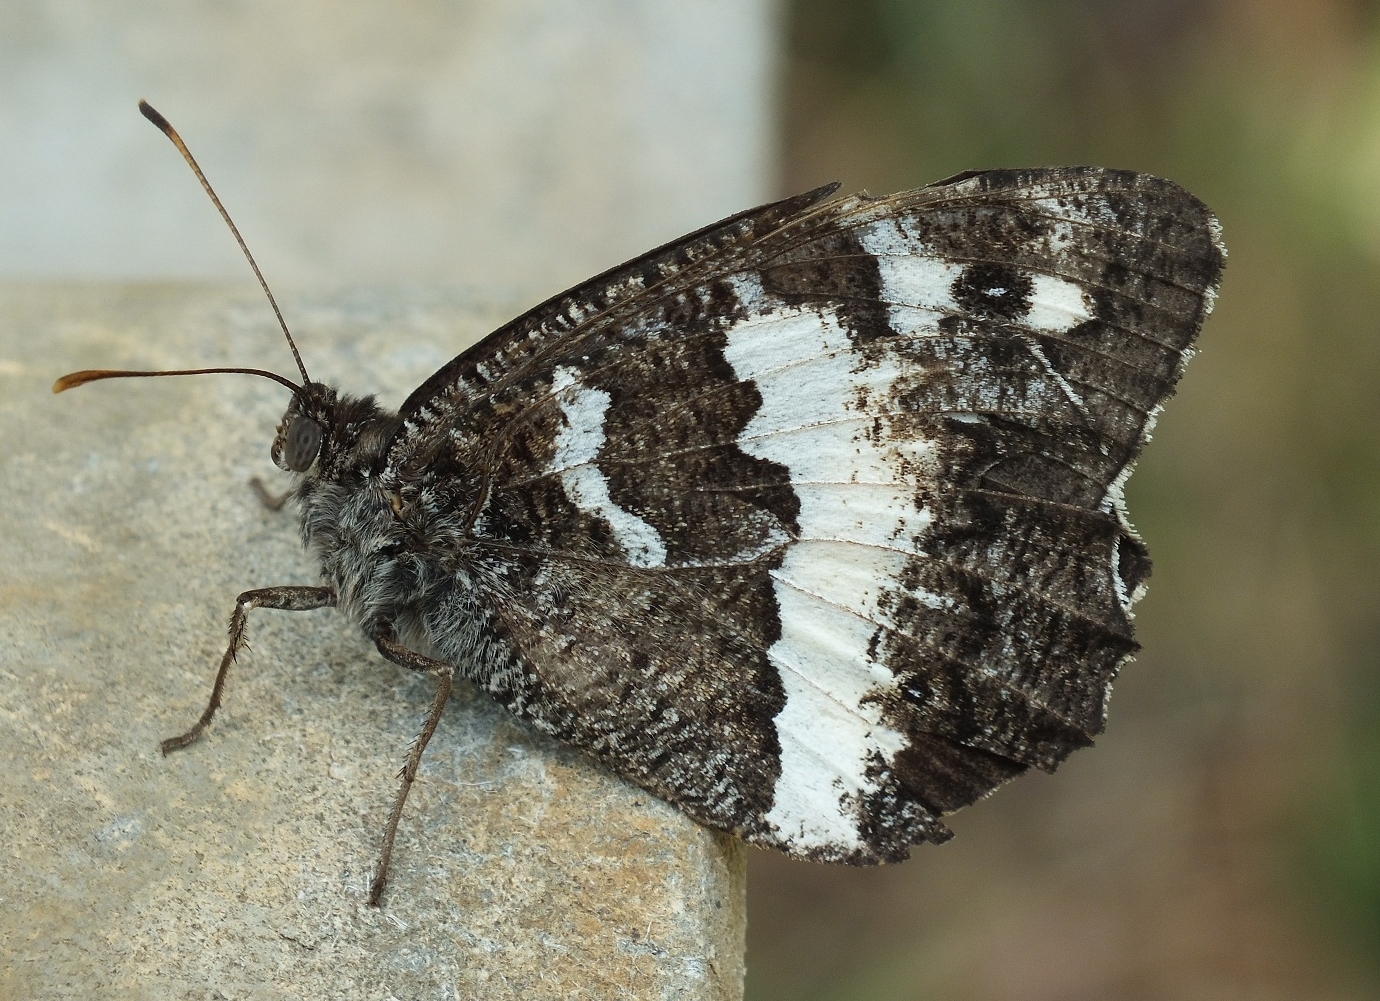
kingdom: Animalia
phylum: Arthropoda
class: Insecta
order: Lepidoptera
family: Lycaenidae
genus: Loweia
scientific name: Loweia tityrus
